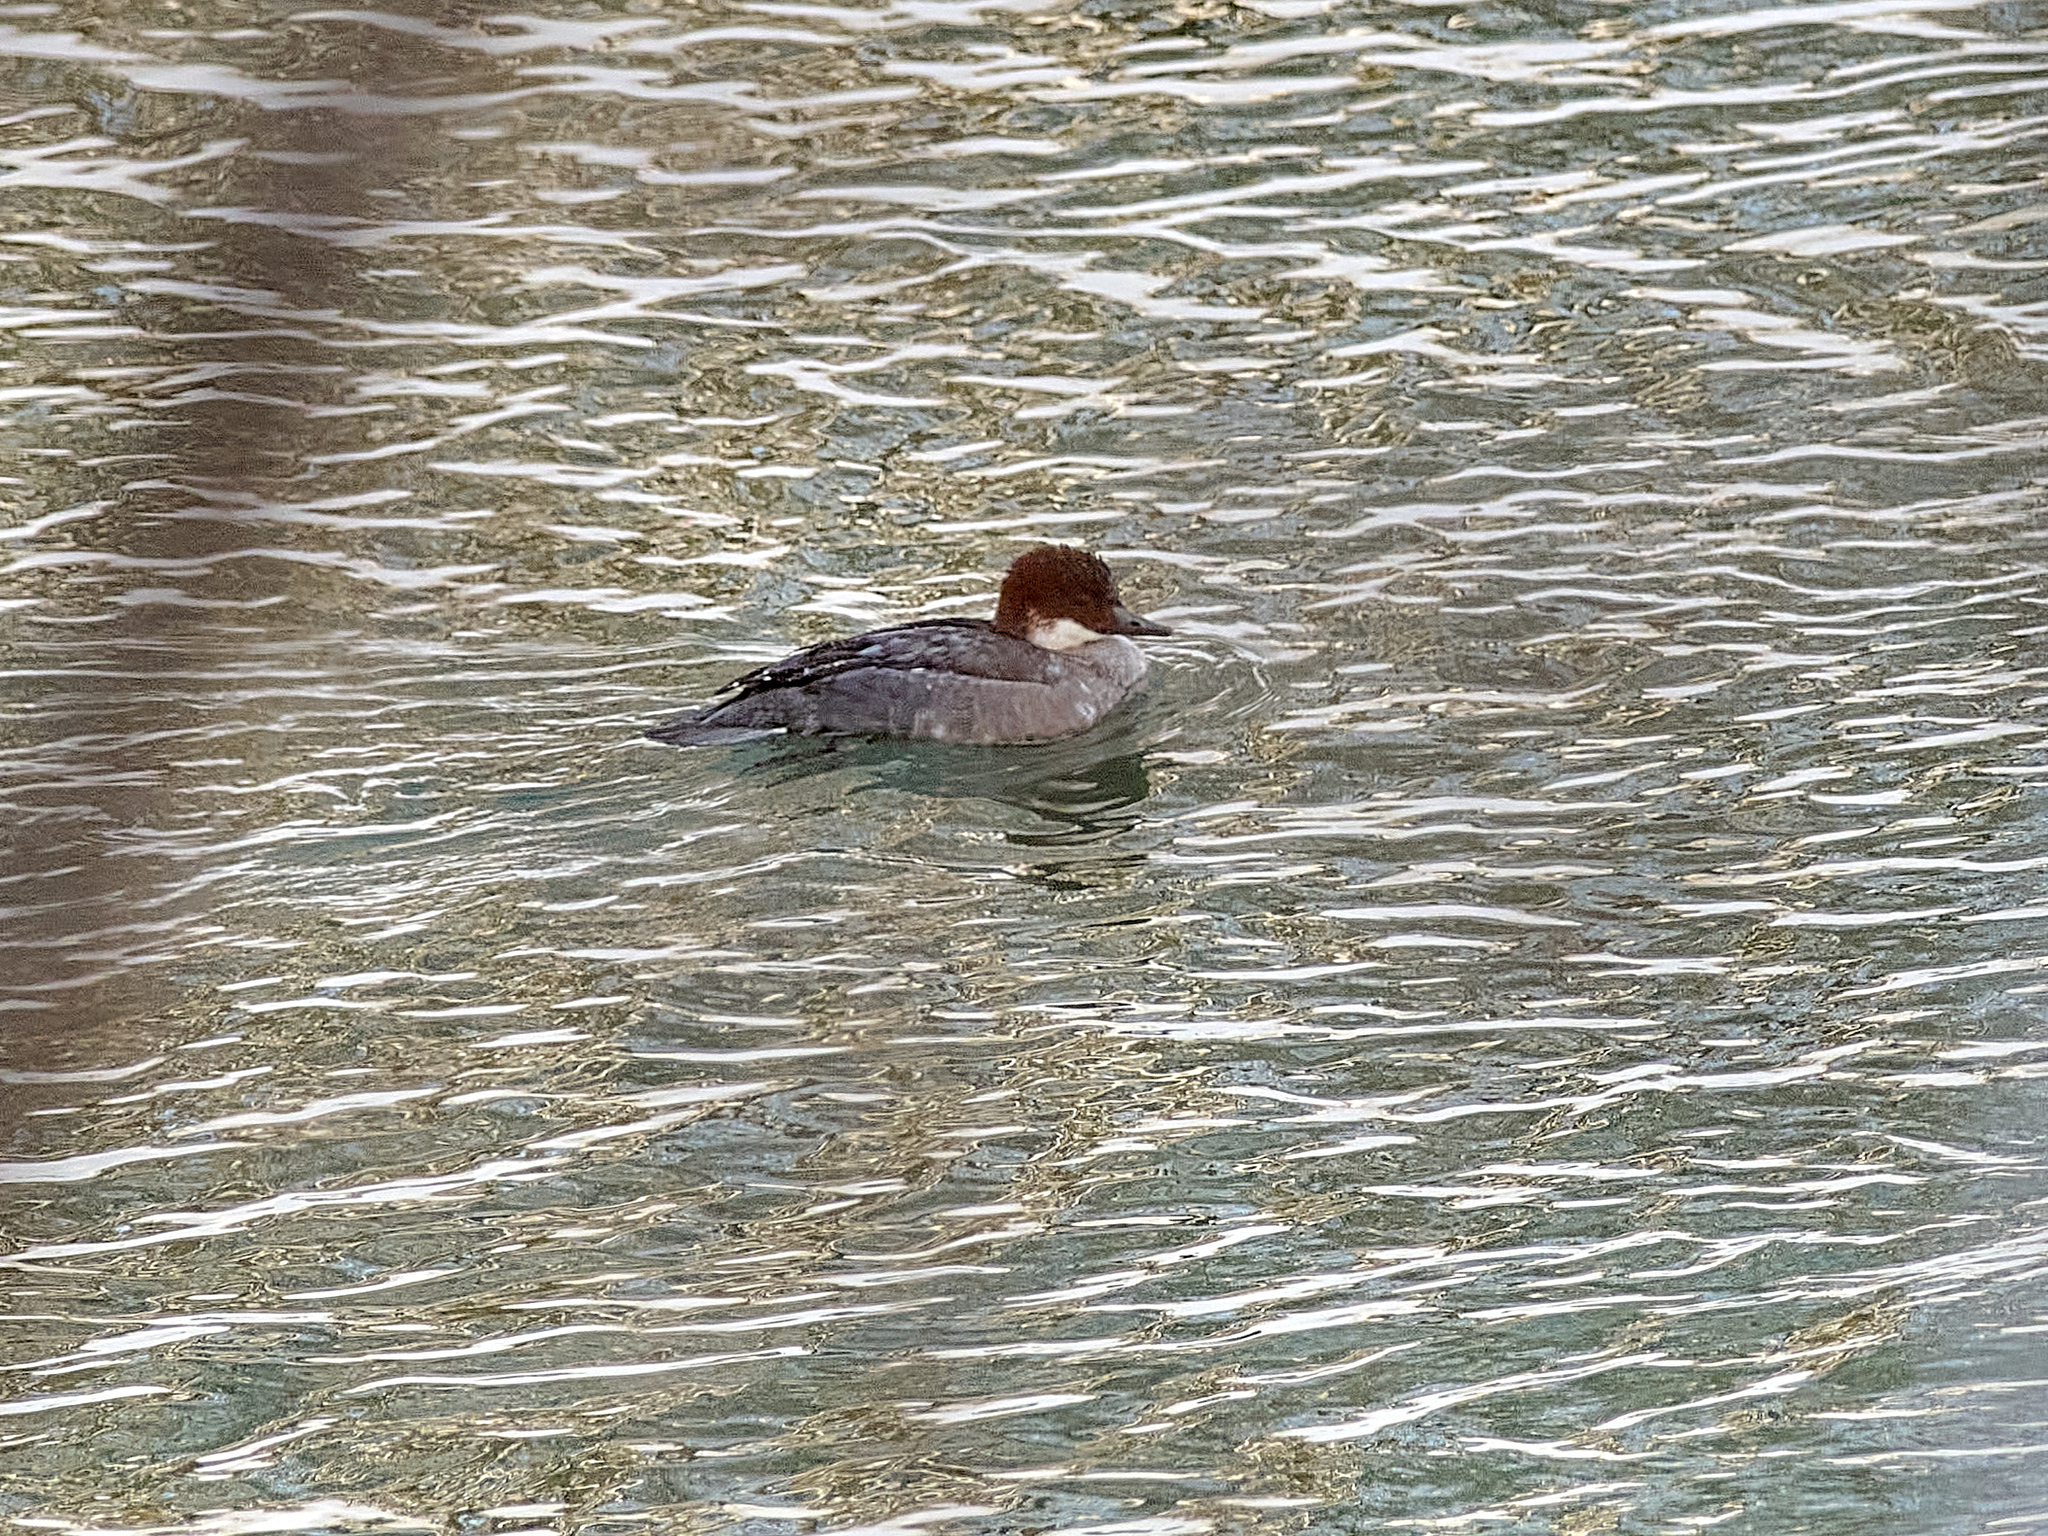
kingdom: Animalia
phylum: Chordata
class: Aves
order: Anseriformes
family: Anatidae
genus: Mergellus
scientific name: Mergellus albellus
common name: Smew
